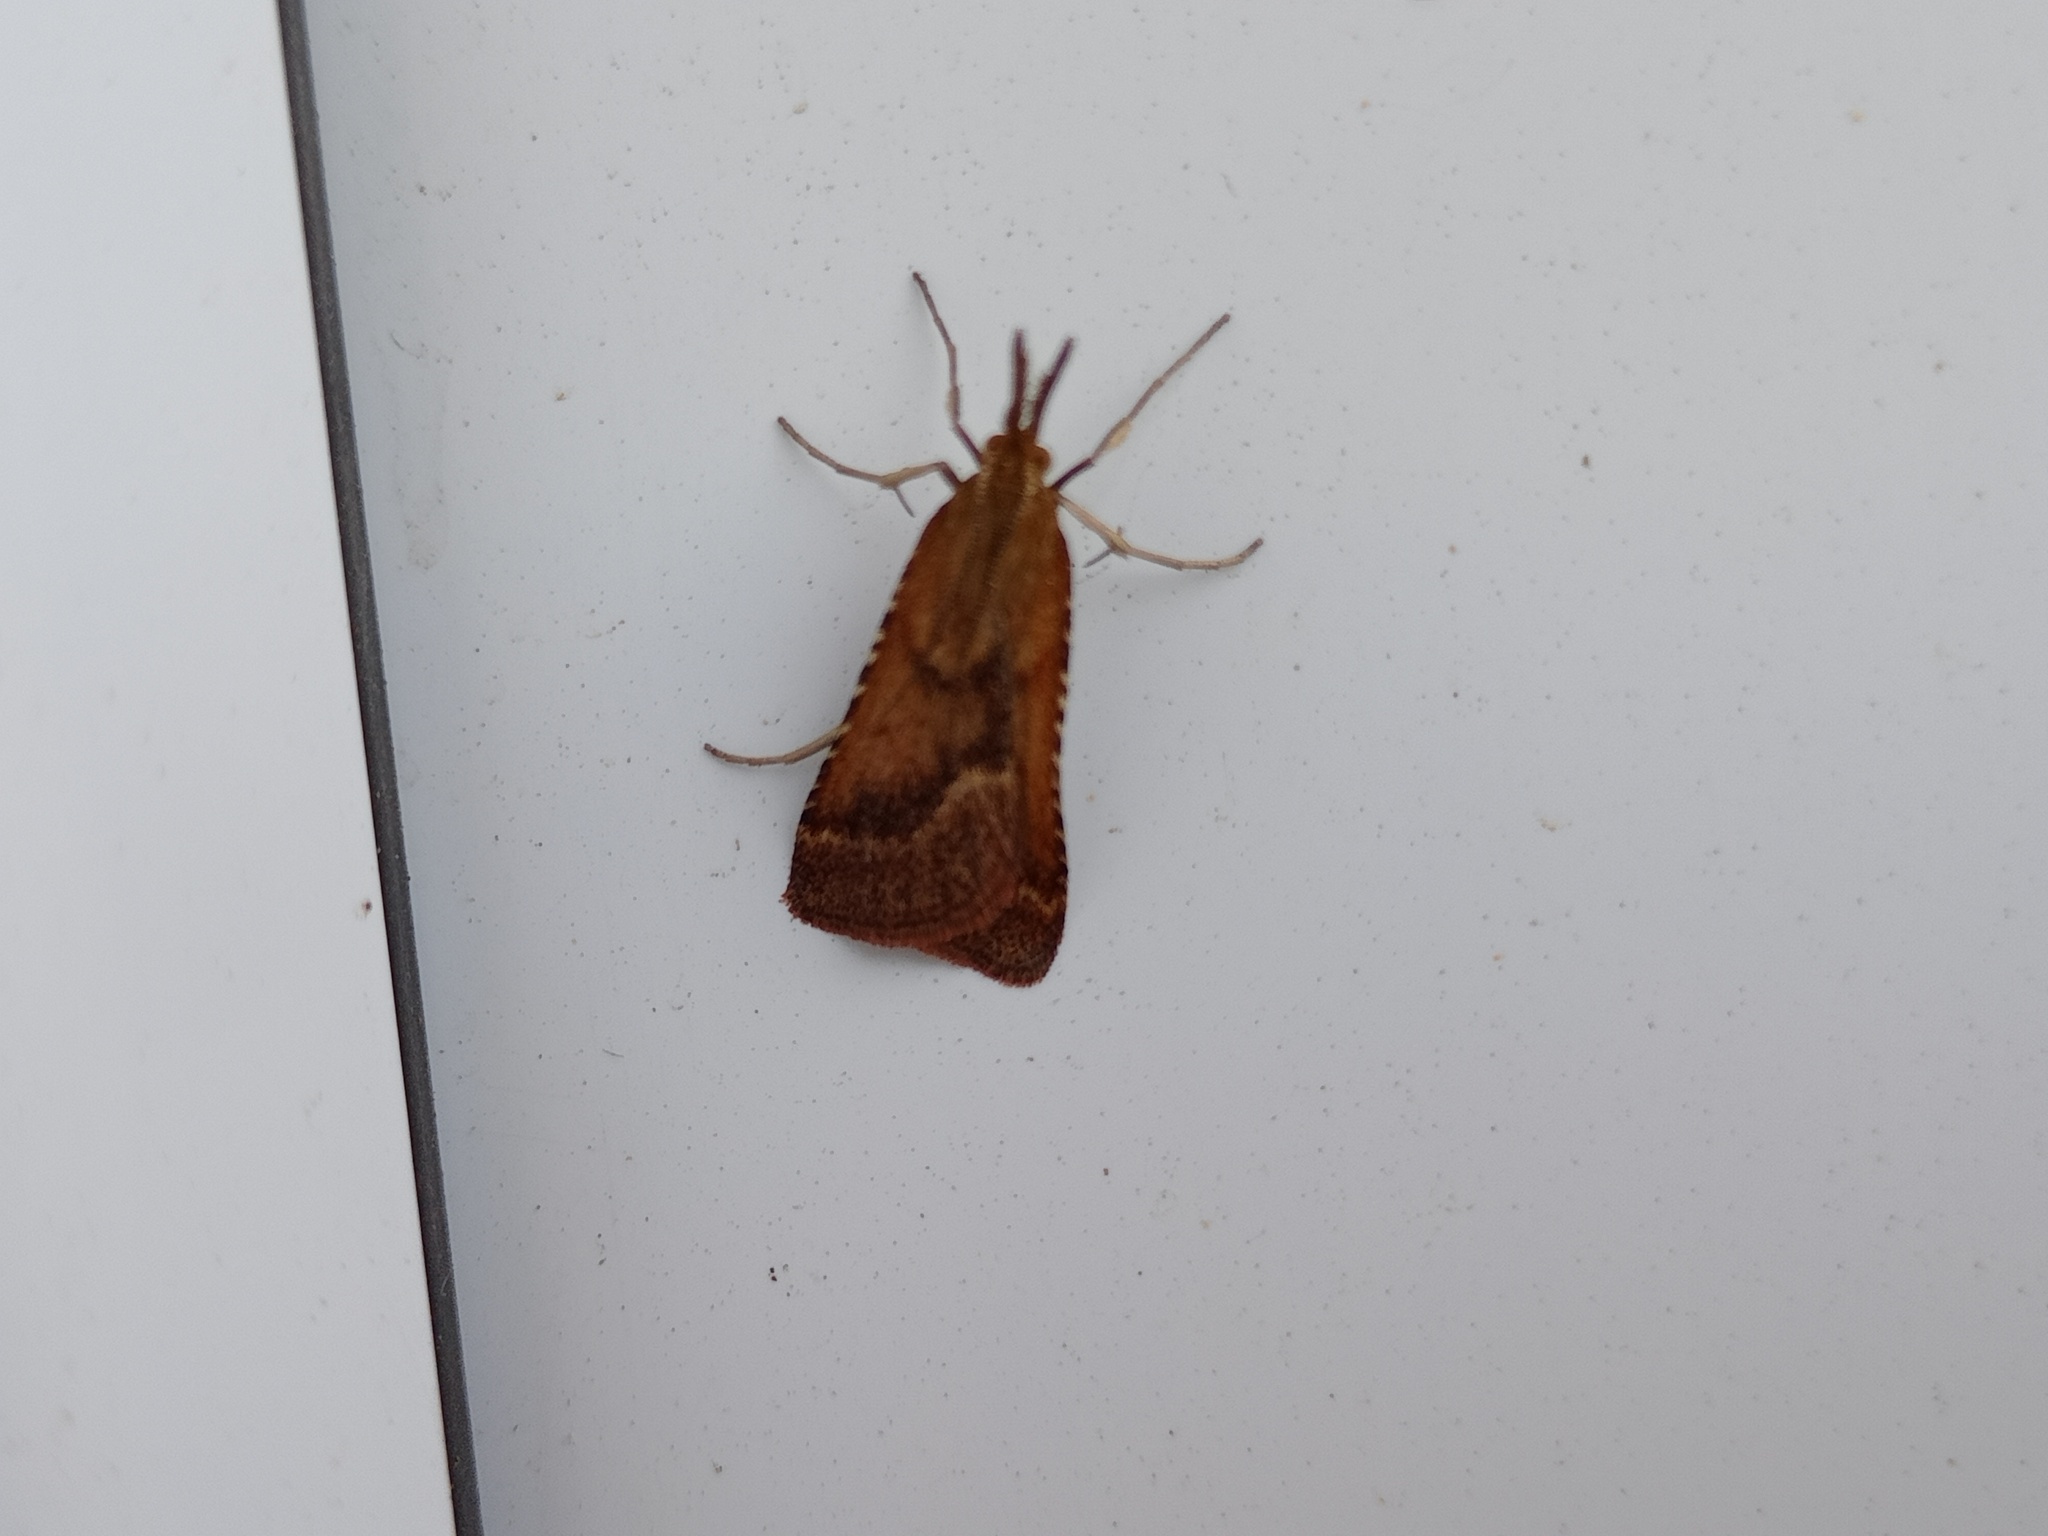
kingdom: Animalia
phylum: Arthropoda
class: Insecta
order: Lepidoptera
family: Pyralidae
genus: Synaphe
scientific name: Synaphe punctalis
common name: Long-legged tabby
